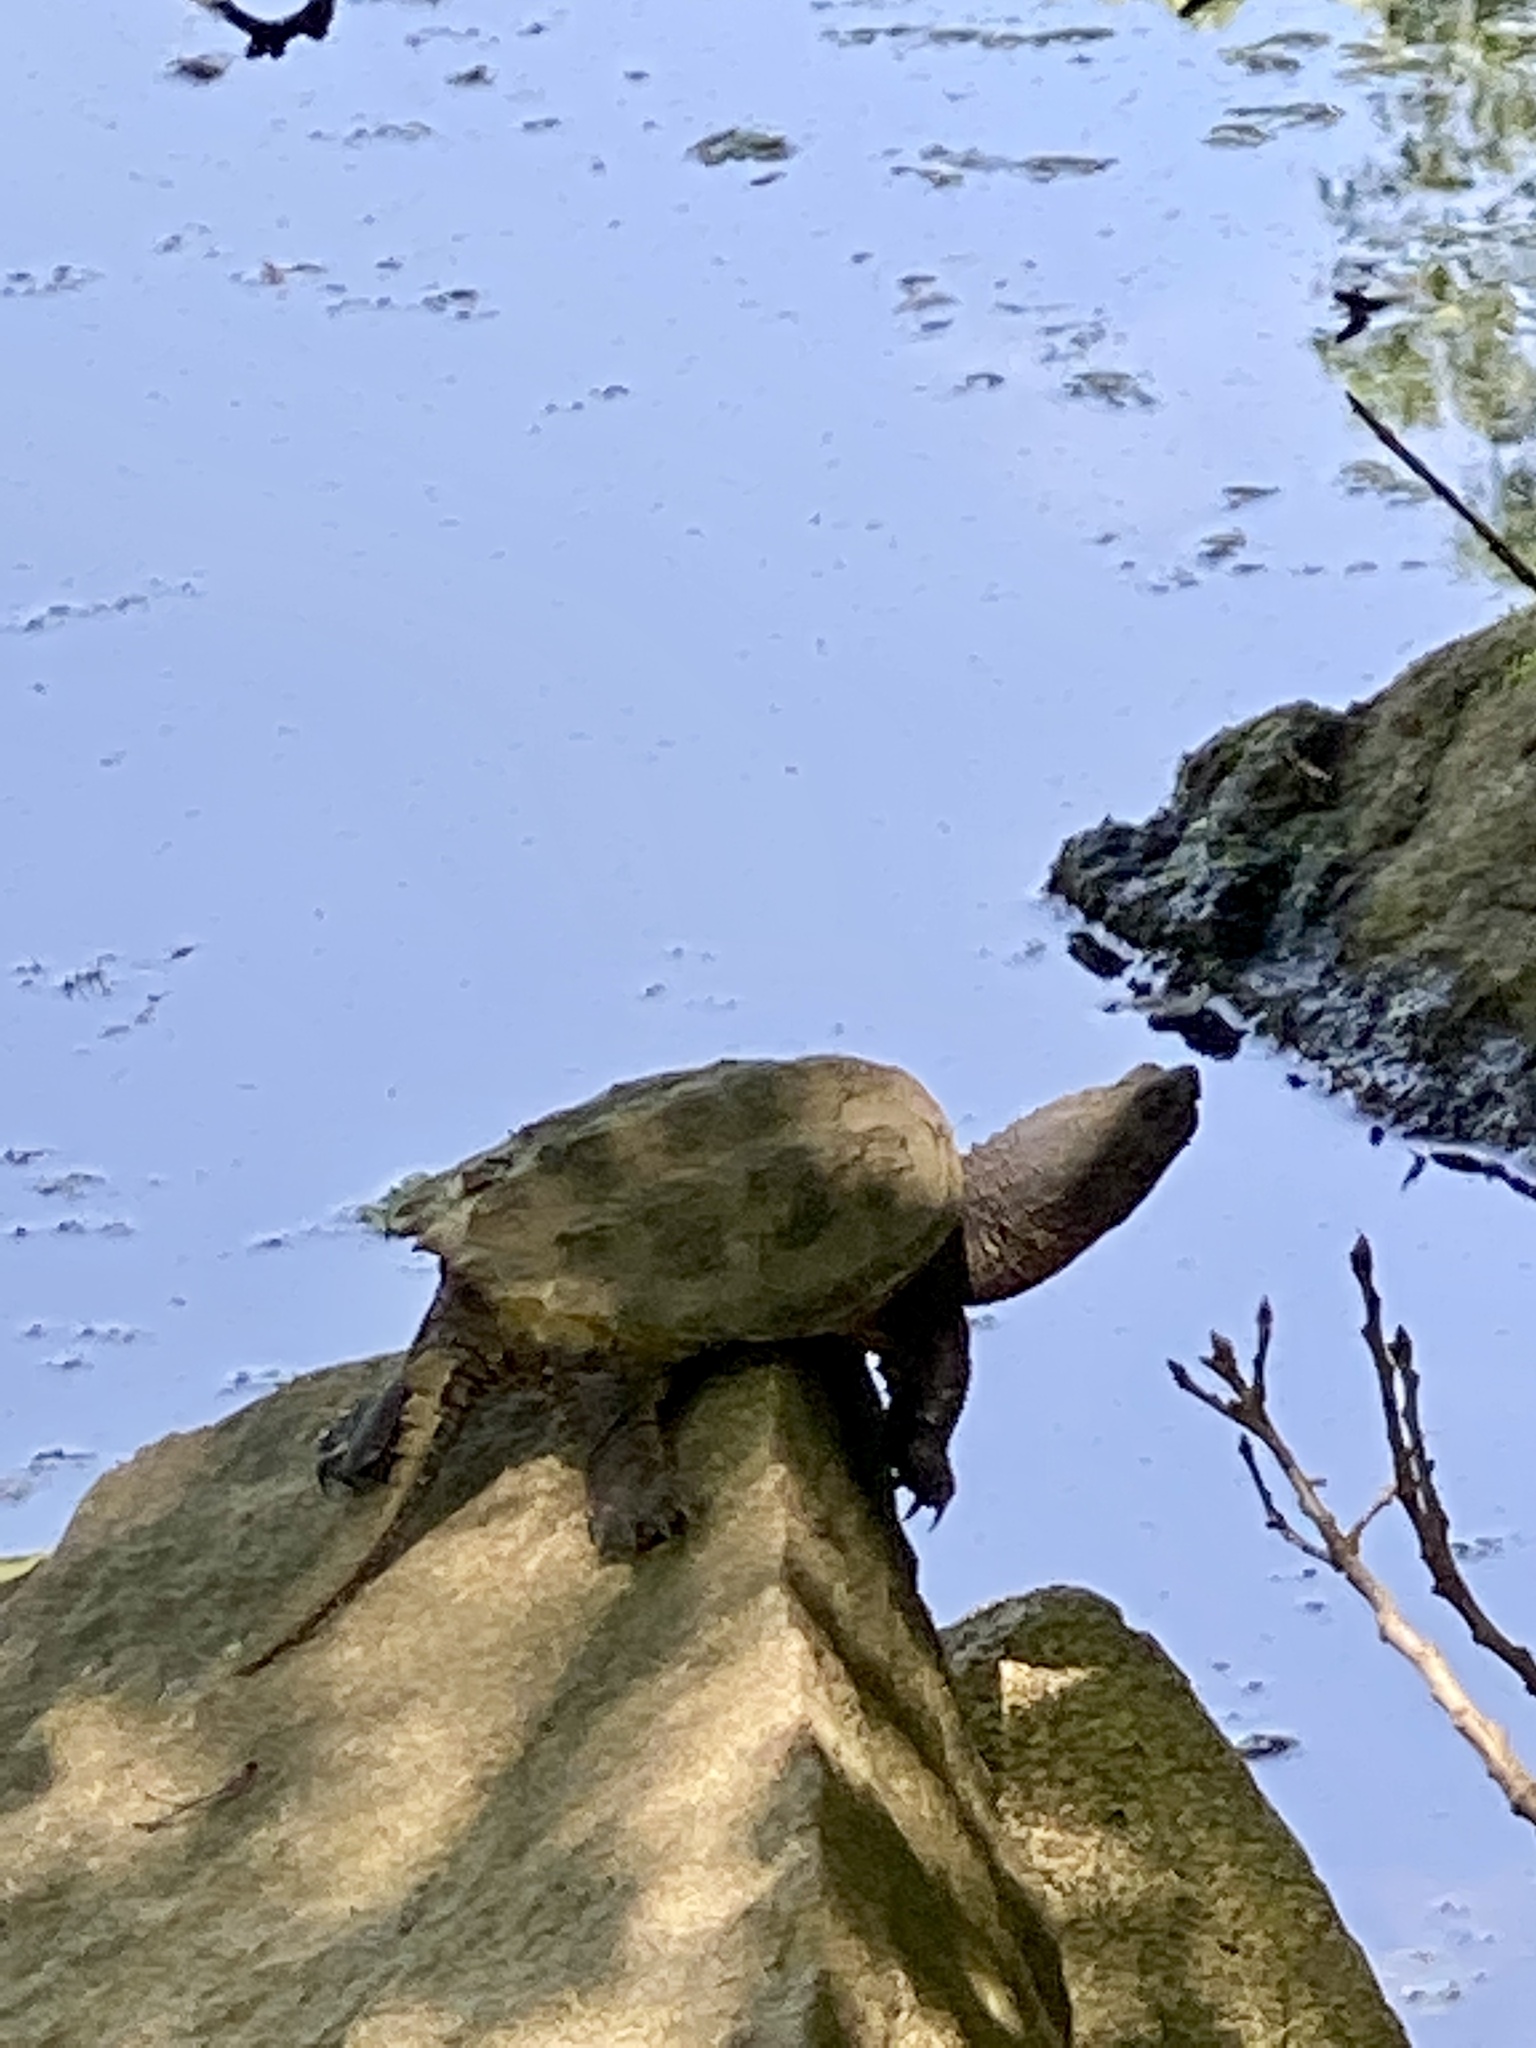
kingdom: Animalia
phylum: Chordata
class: Testudines
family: Chelydridae
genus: Chelydra
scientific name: Chelydra serpentina
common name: Common snapping turtle
